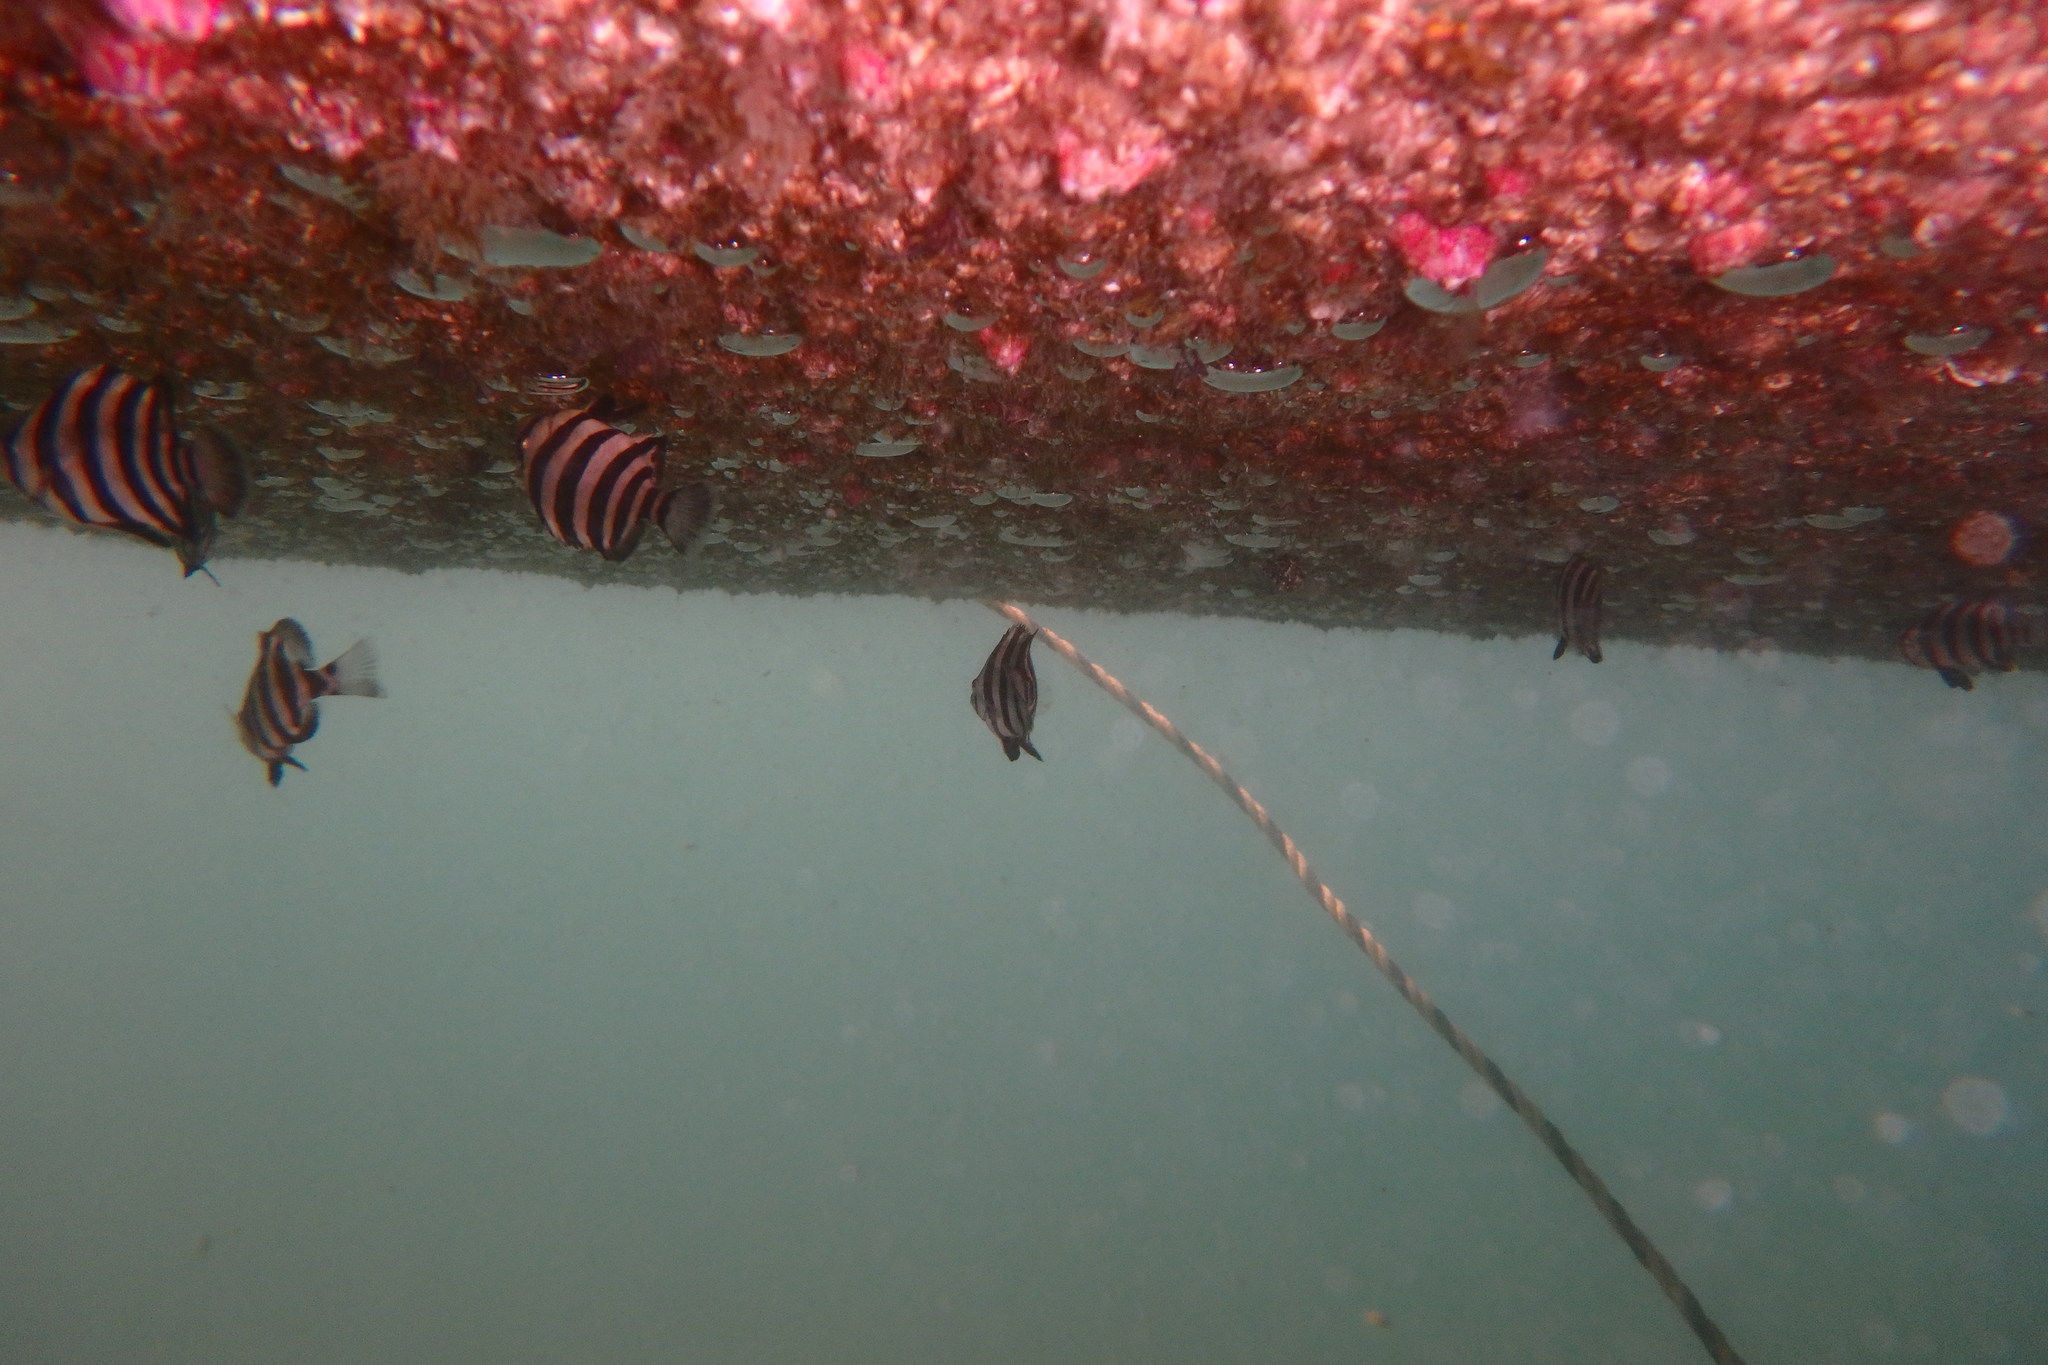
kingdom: Animalia
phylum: Chordata
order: Perciformes
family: Oplegnathidae
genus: Oplegnathus
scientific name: Oplegnathus fasciatus
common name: Barred knifejaw
